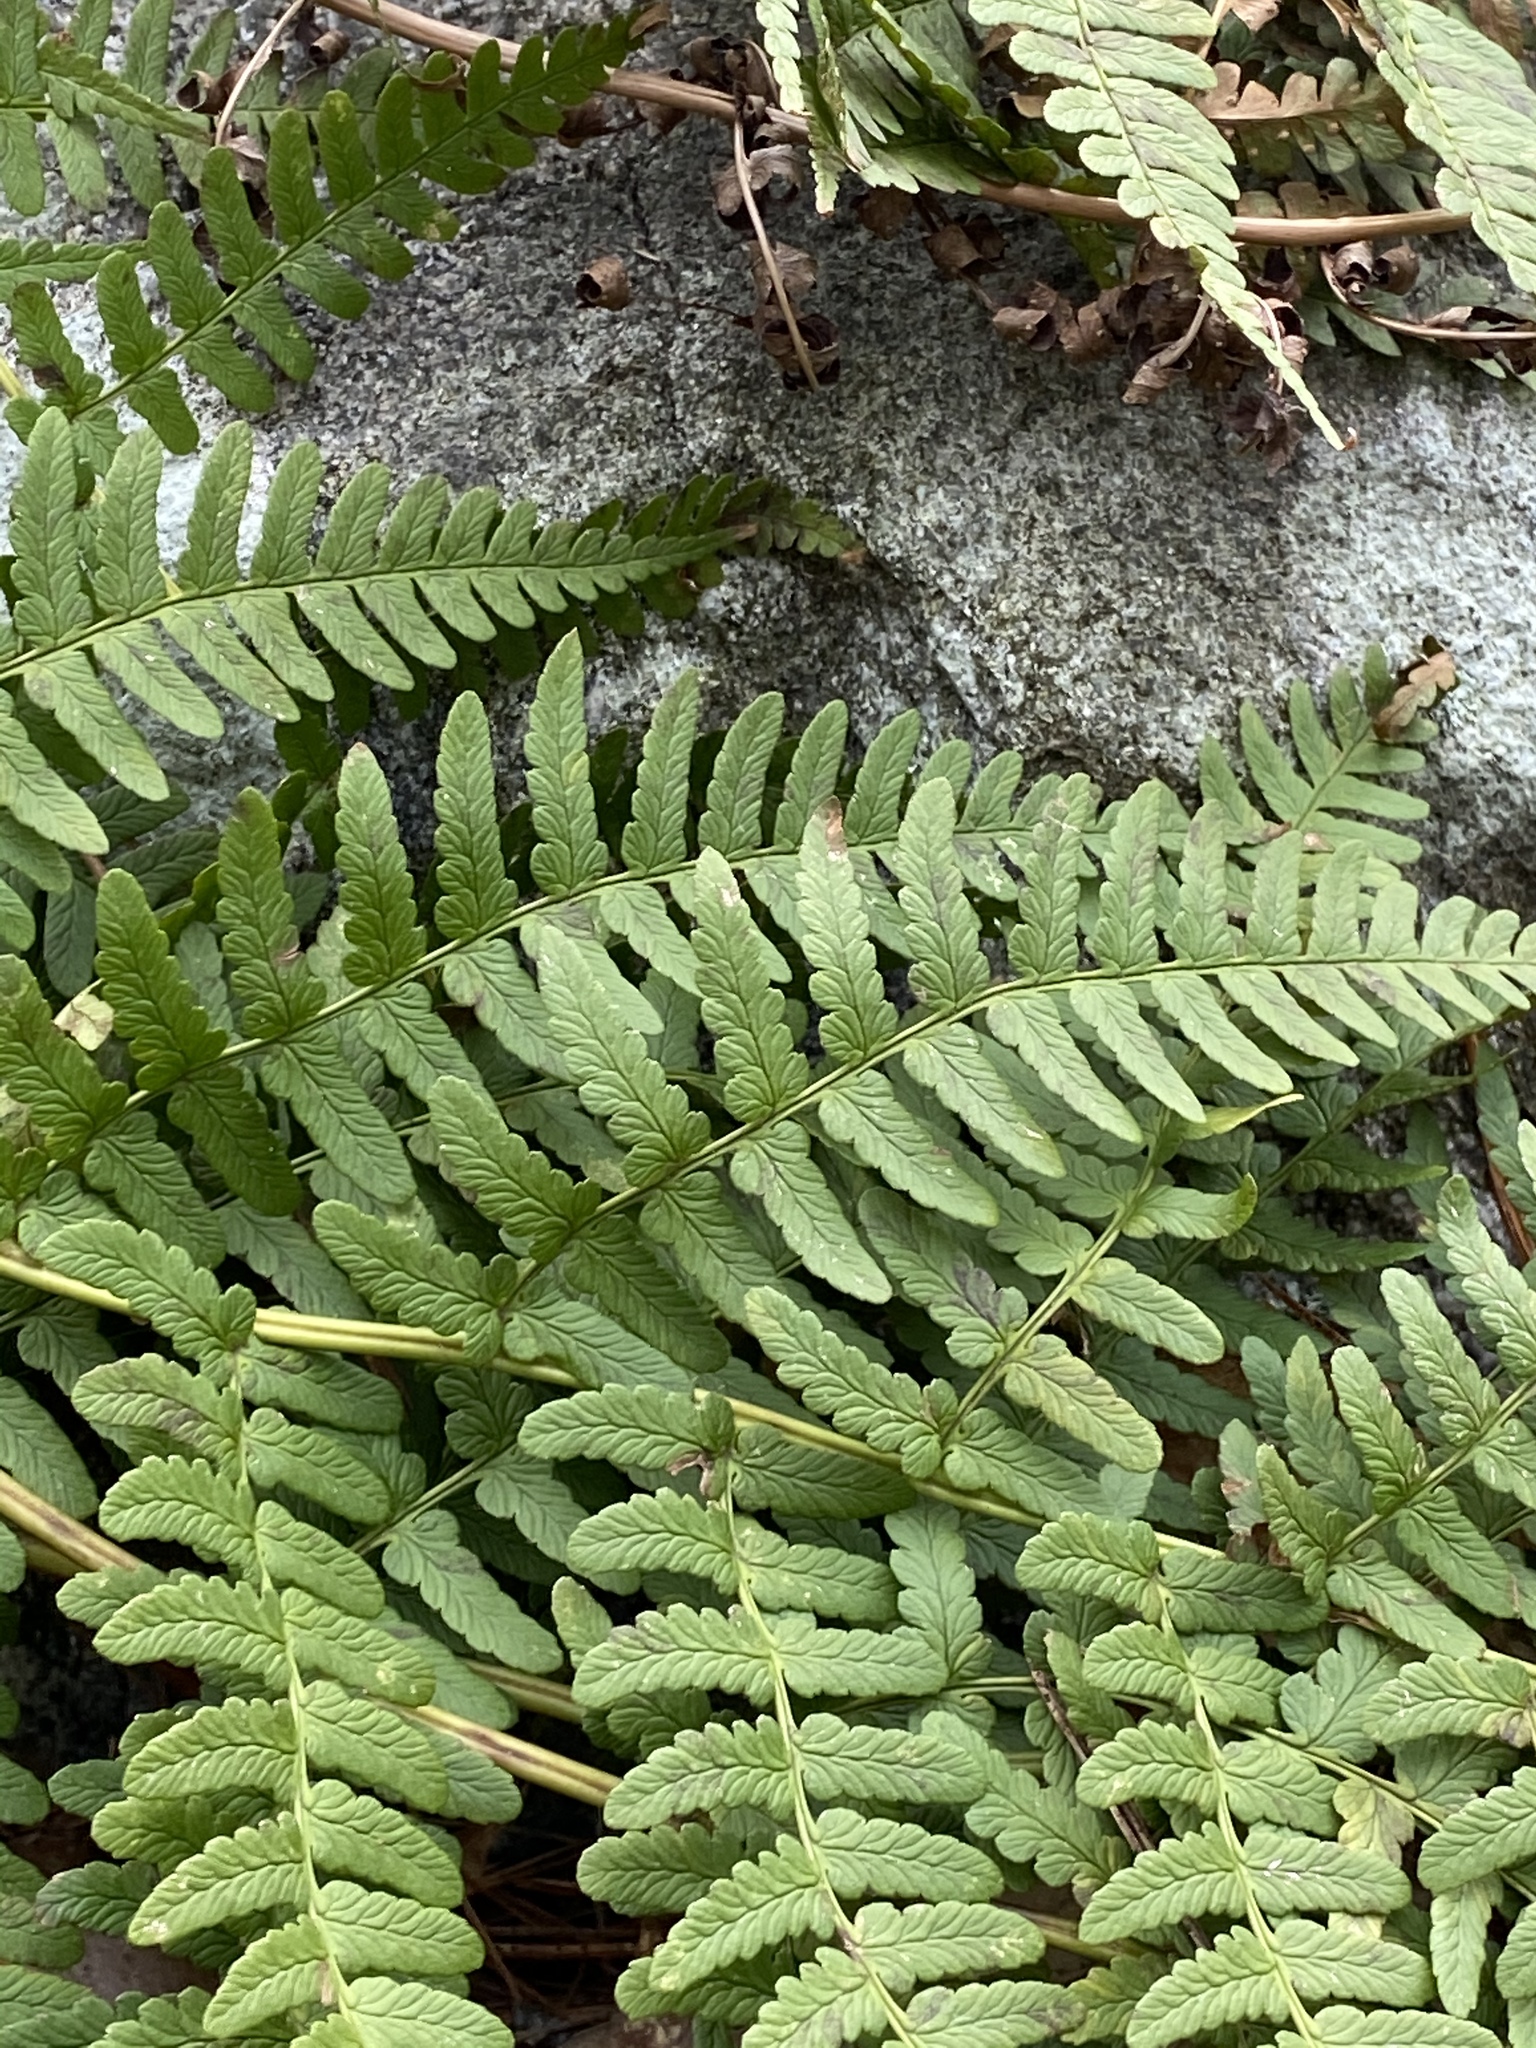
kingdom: Plantae
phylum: Tracheophyta
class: Polypodiopsida
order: Polypodiales
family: Dryopteridaceae
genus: Dryopteris
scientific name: Dryopteris marginalis
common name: Marginal wood fern
